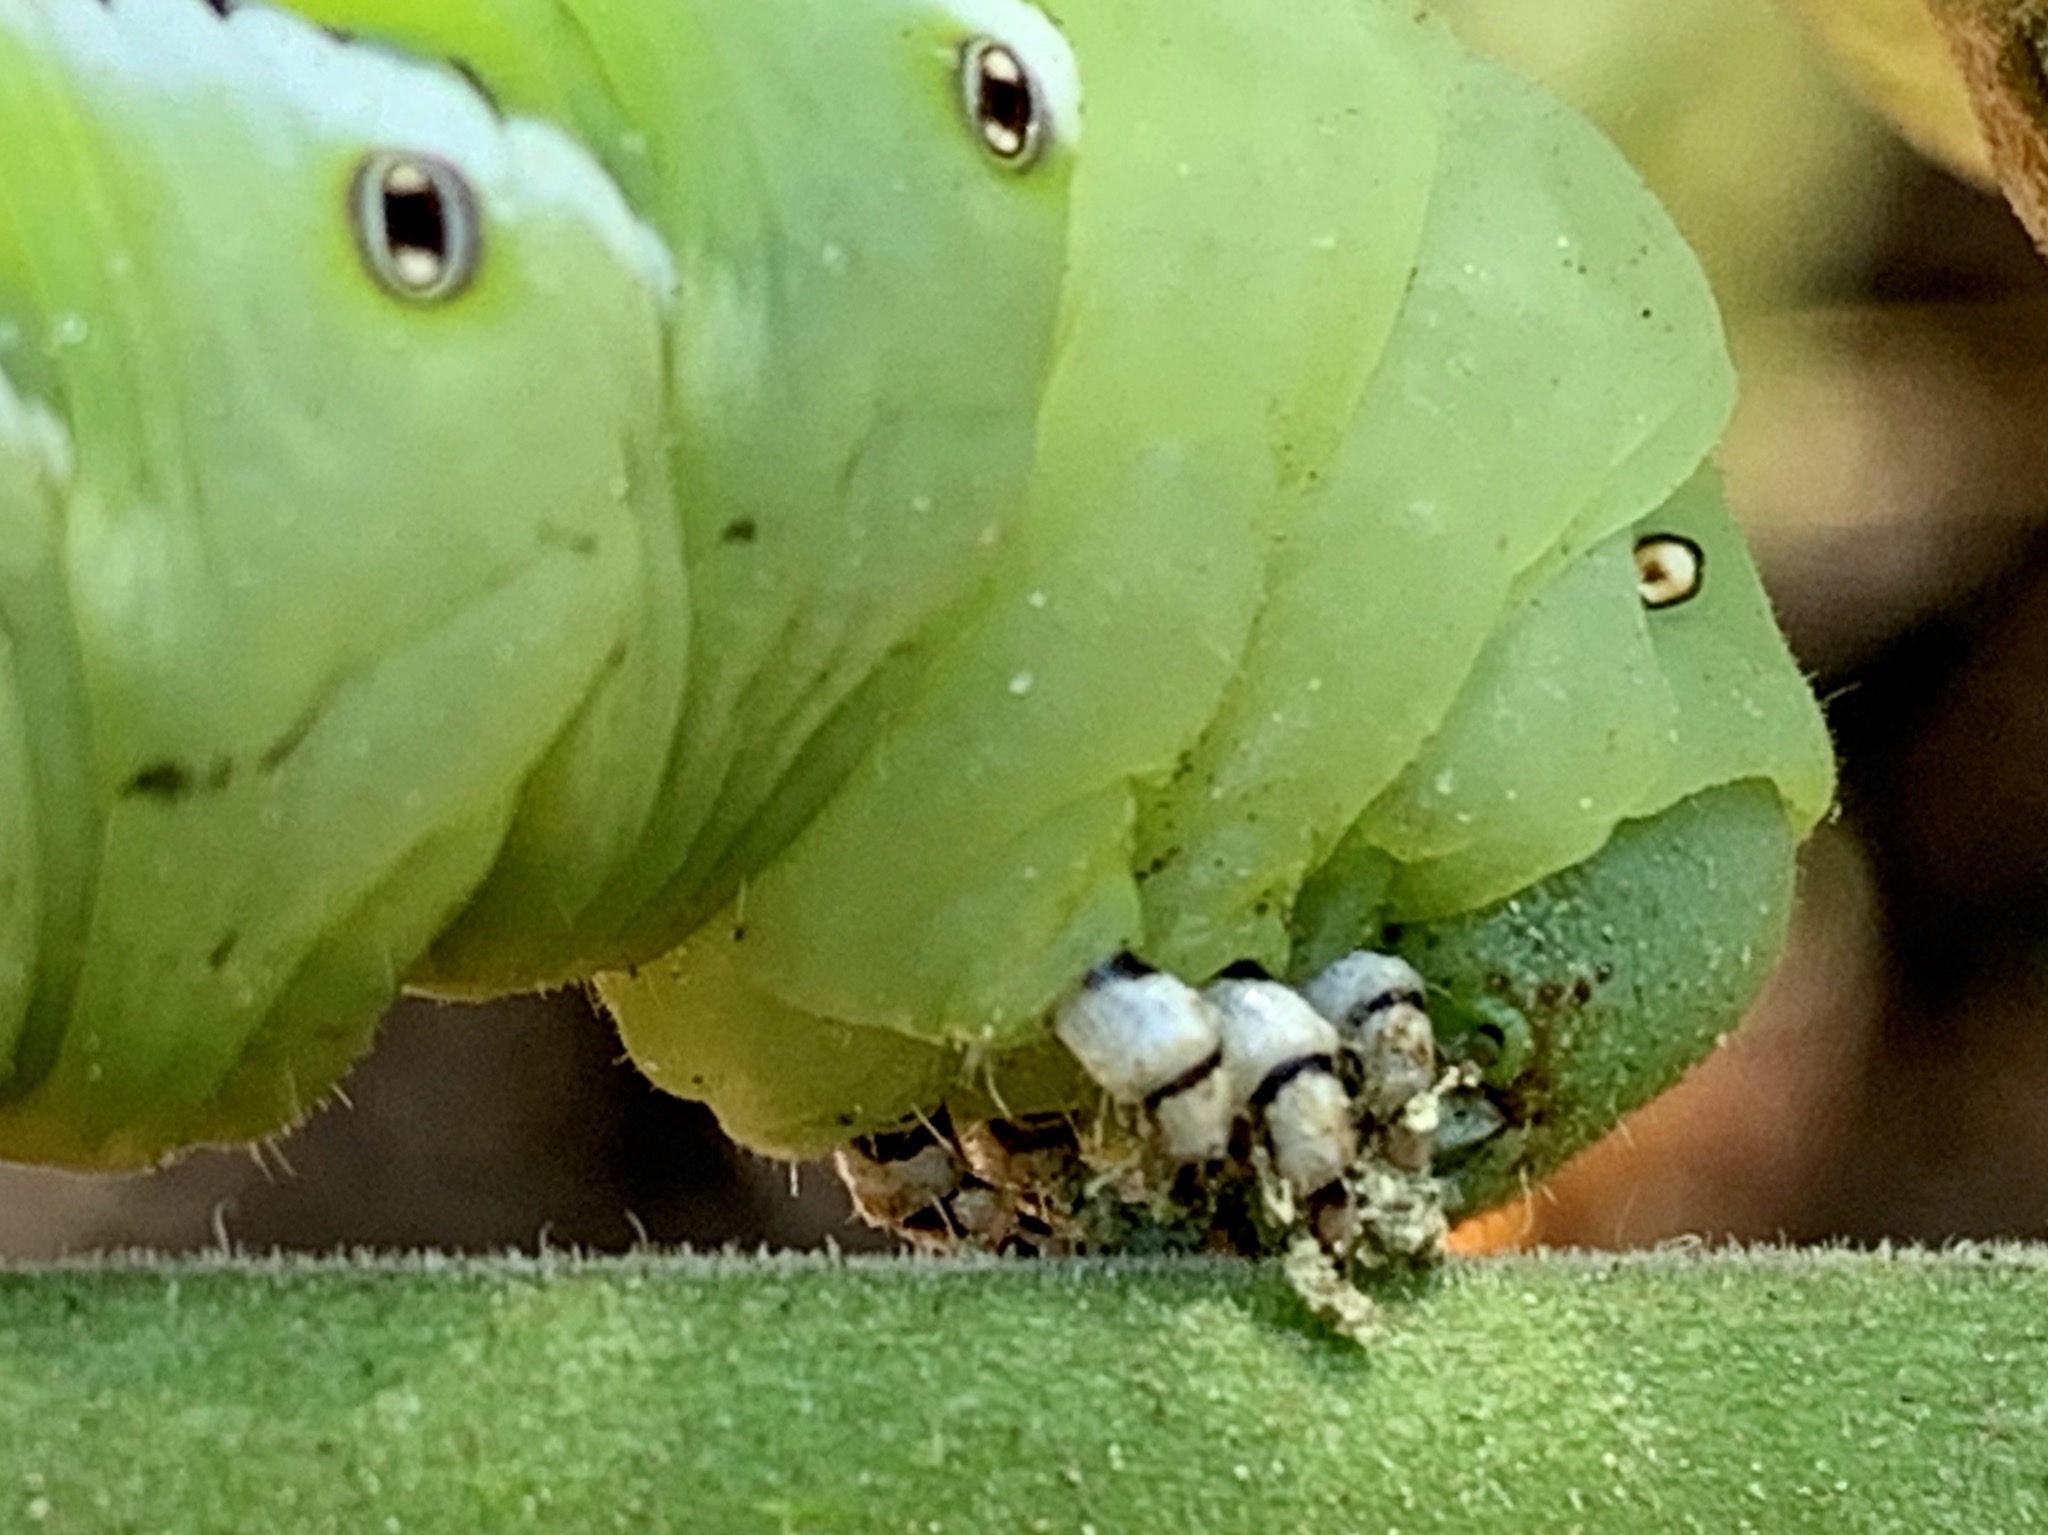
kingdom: Animalia
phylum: Arthropoda
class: Insecta
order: Lepidoptera
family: Sphingidae
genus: Manduca
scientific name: Manduca sexta
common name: Carolina sphinx
